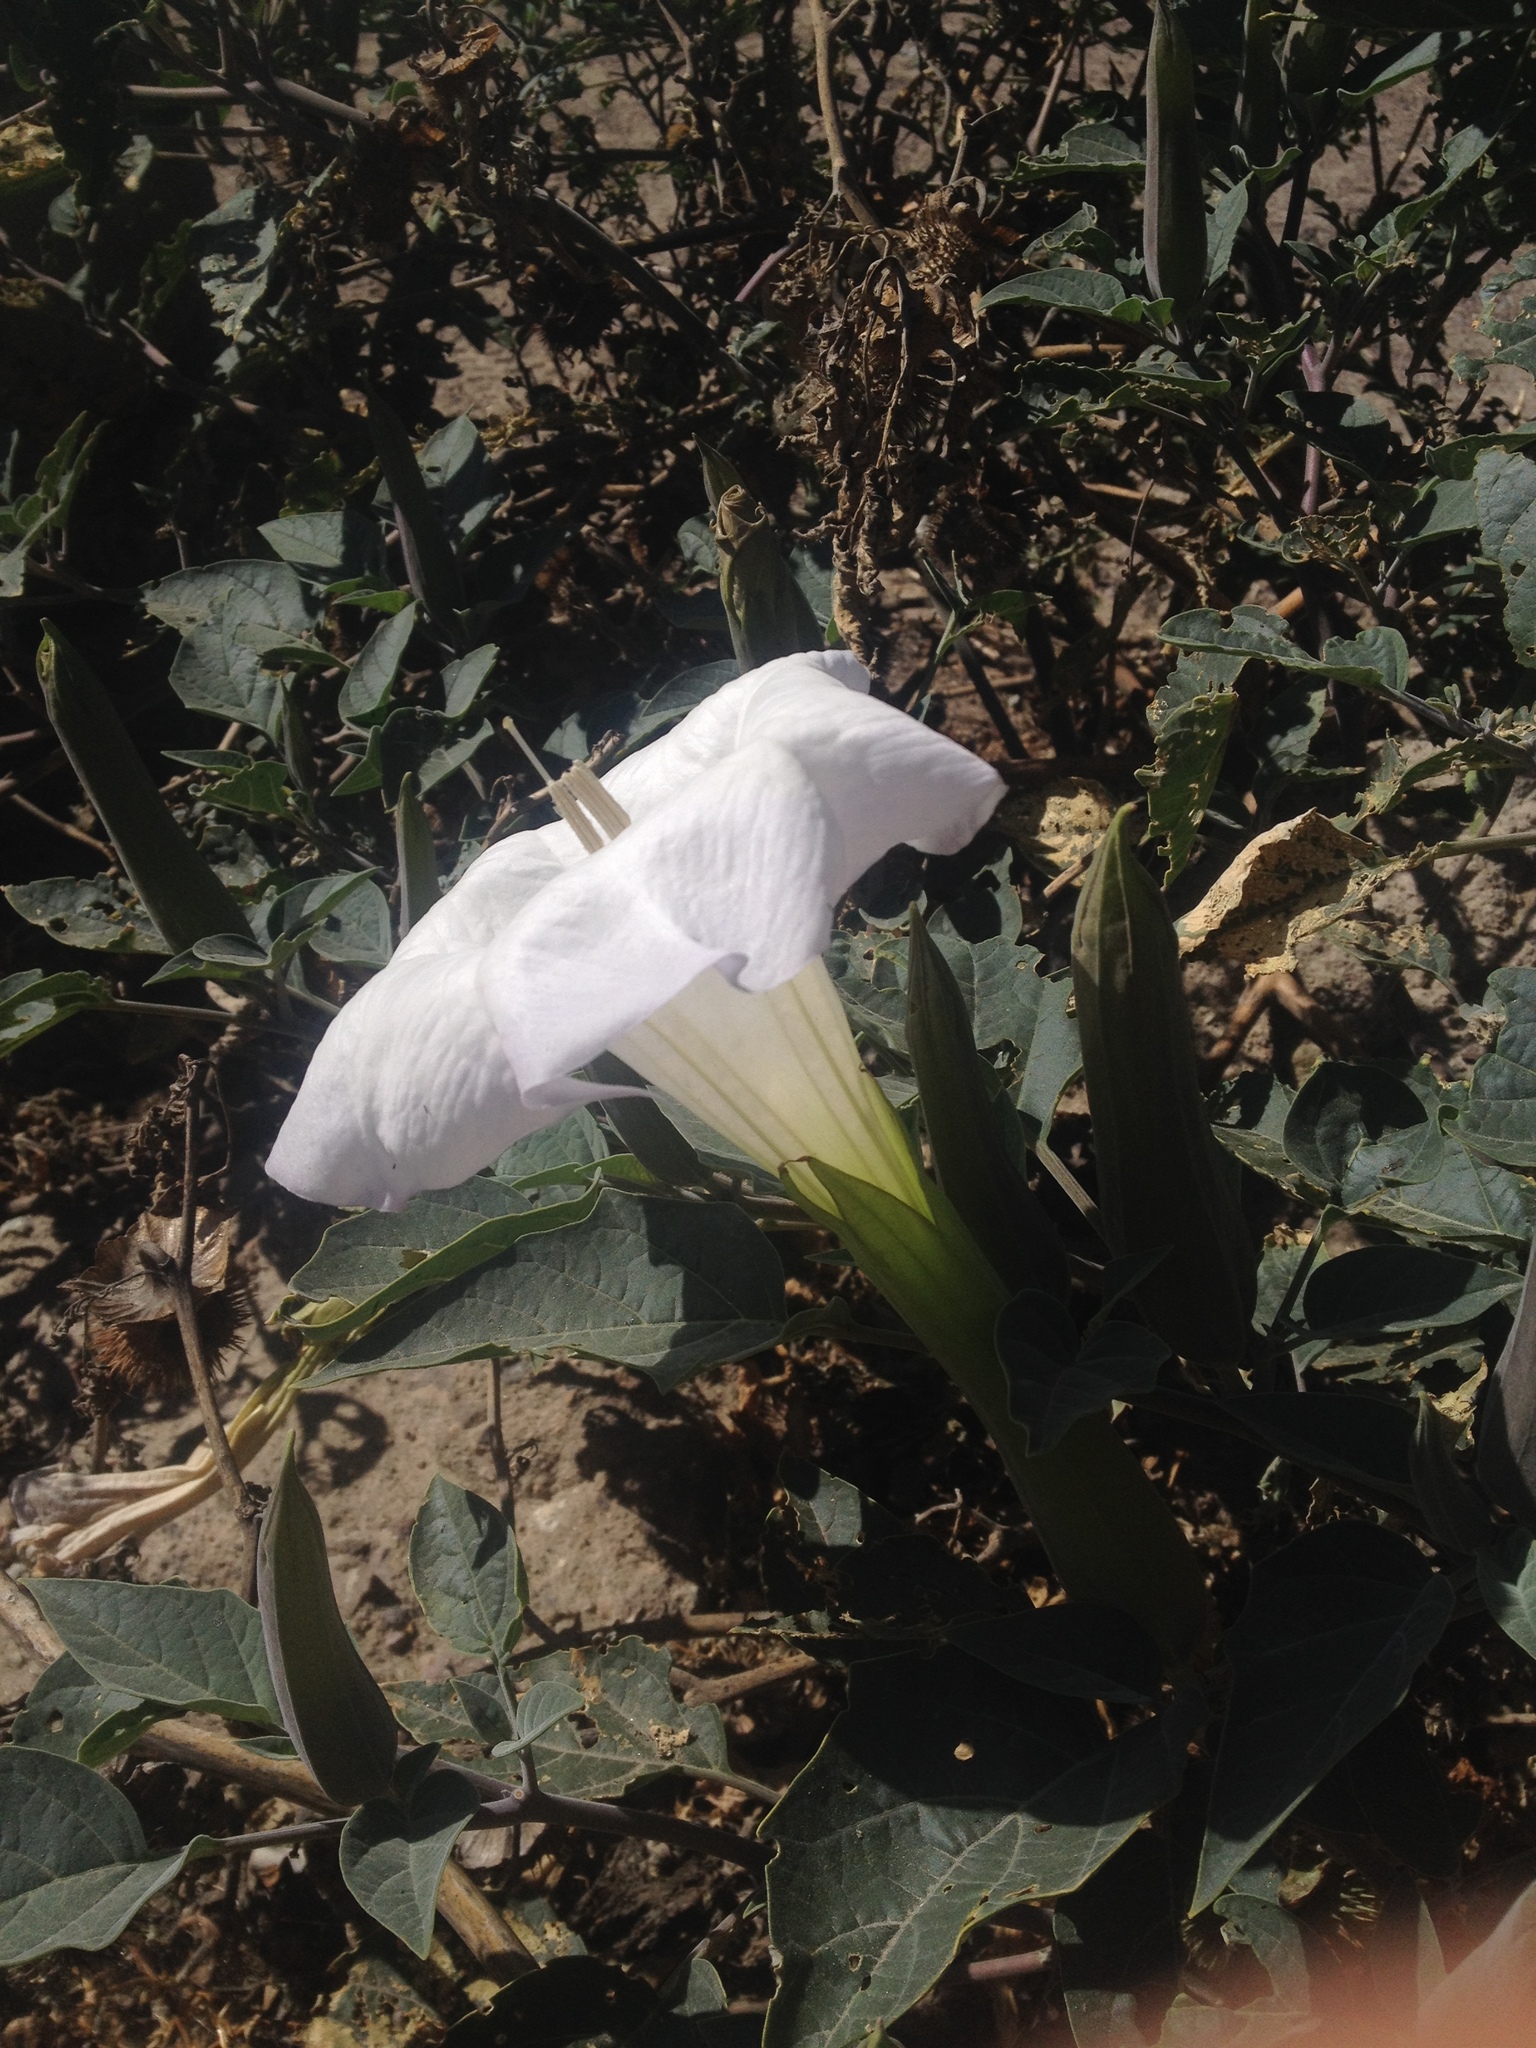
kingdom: Plantae
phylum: Tracheophyta
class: Magnoliopsida
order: Solanales
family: Solanaceae
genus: Datura
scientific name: Datura wrightii
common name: Sacred thorn-apple
